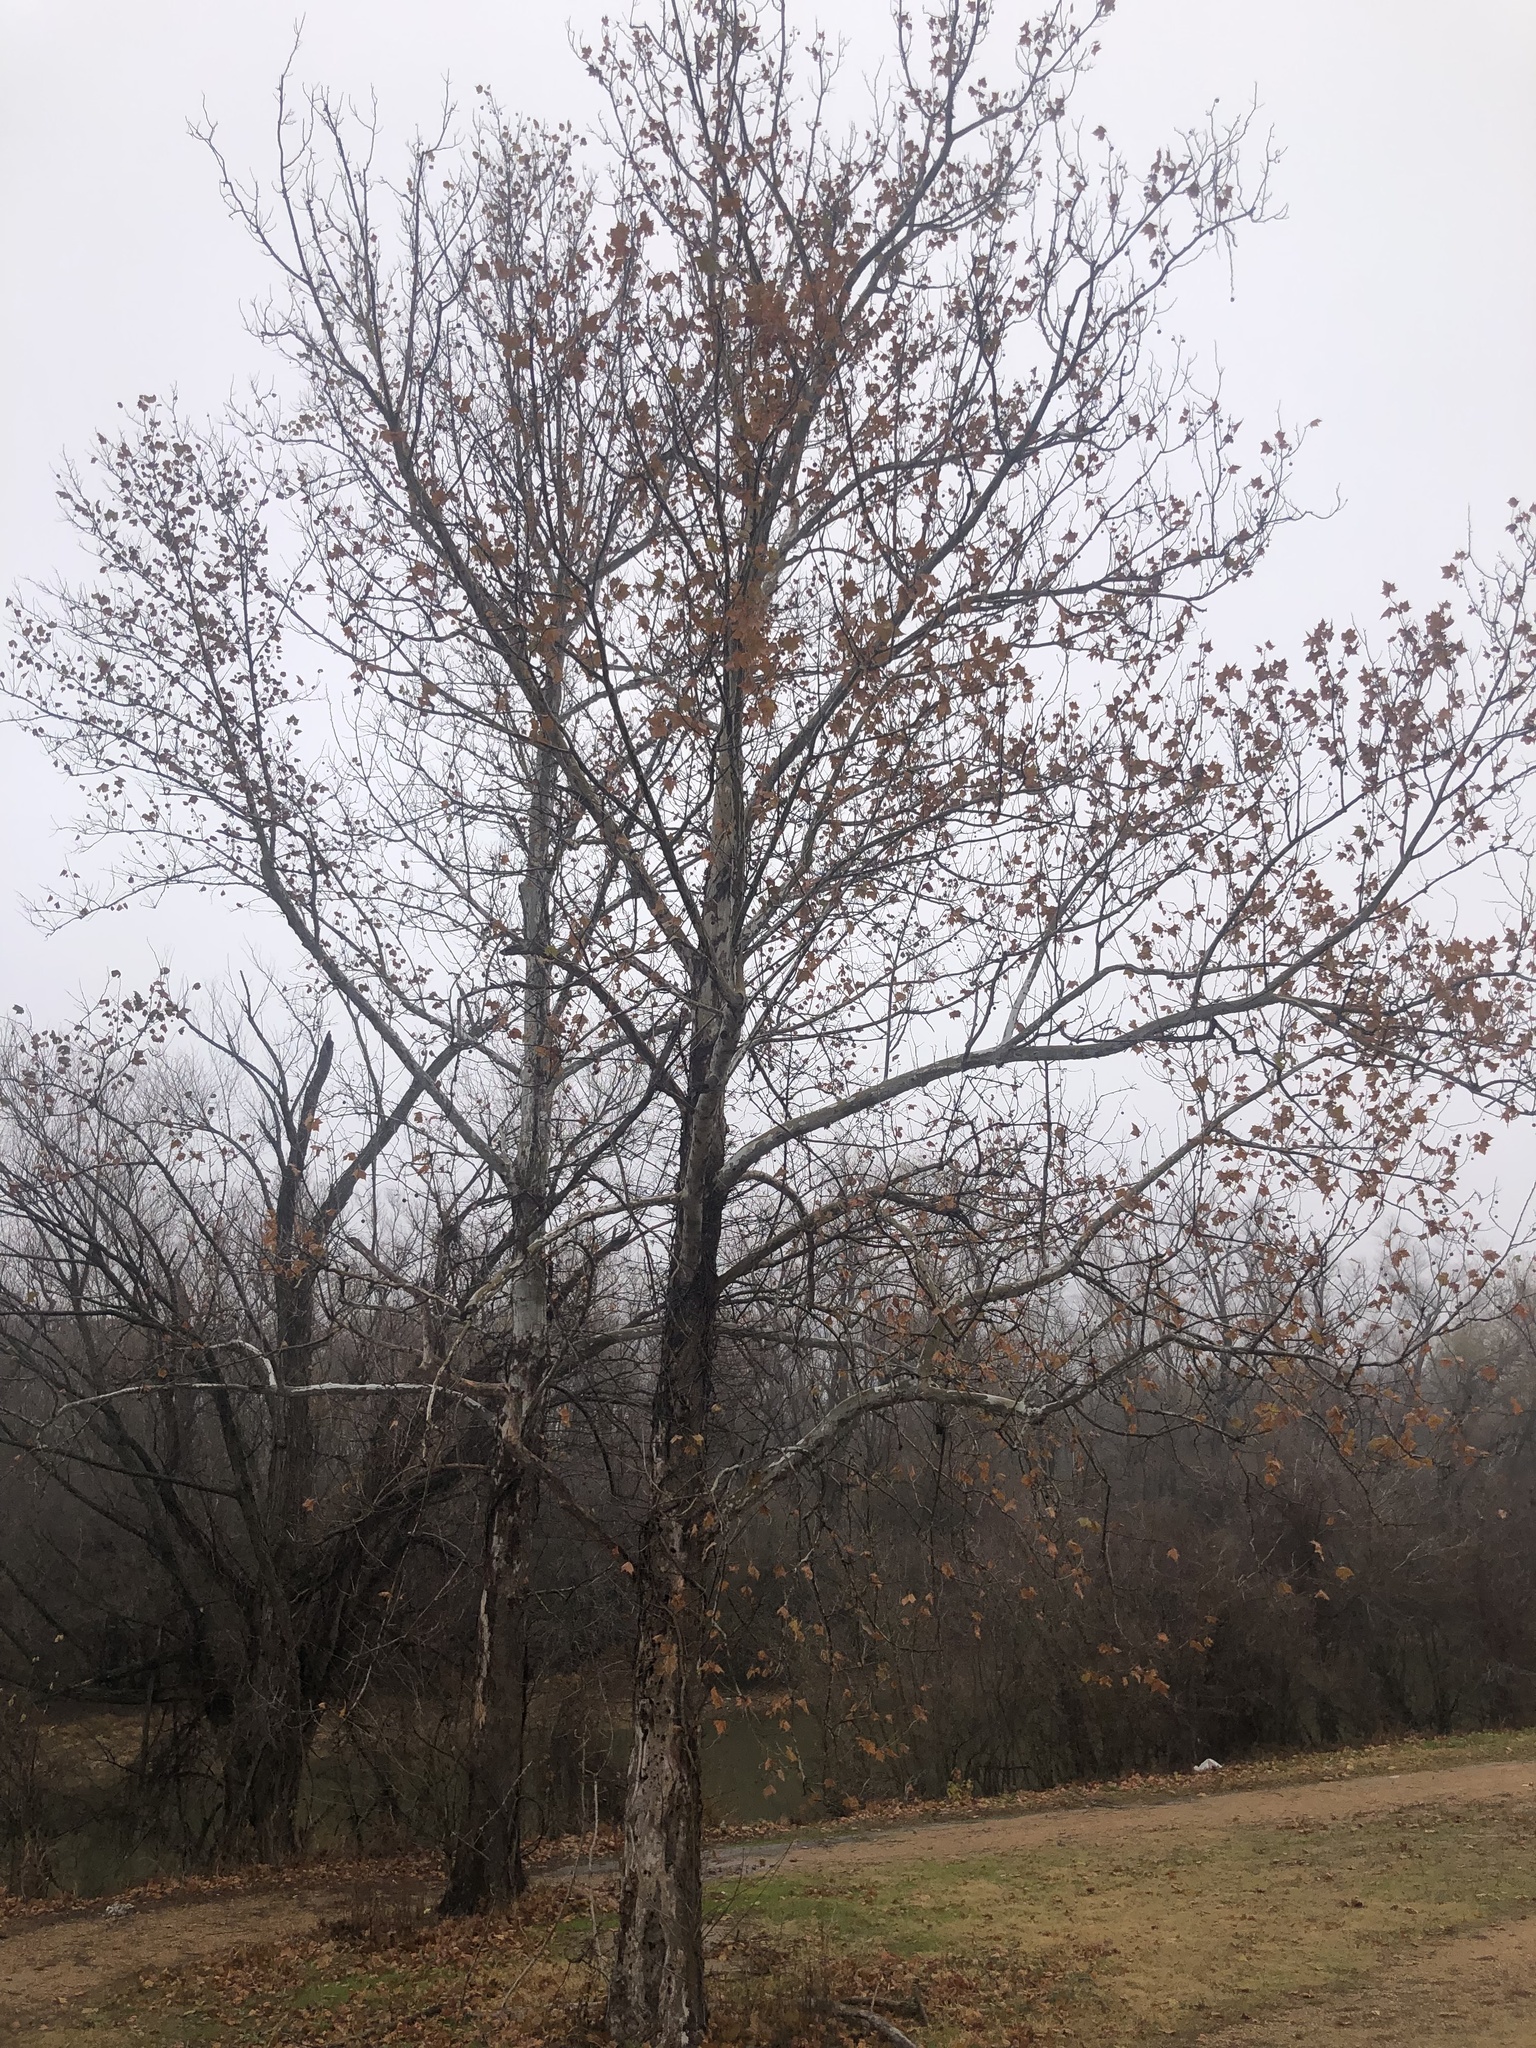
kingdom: Plantae
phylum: Tracheophyta
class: Magnoliopsida
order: Proteales
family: Platanaceae
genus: Platanus
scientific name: Platanus occidentalis
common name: American sycamore
